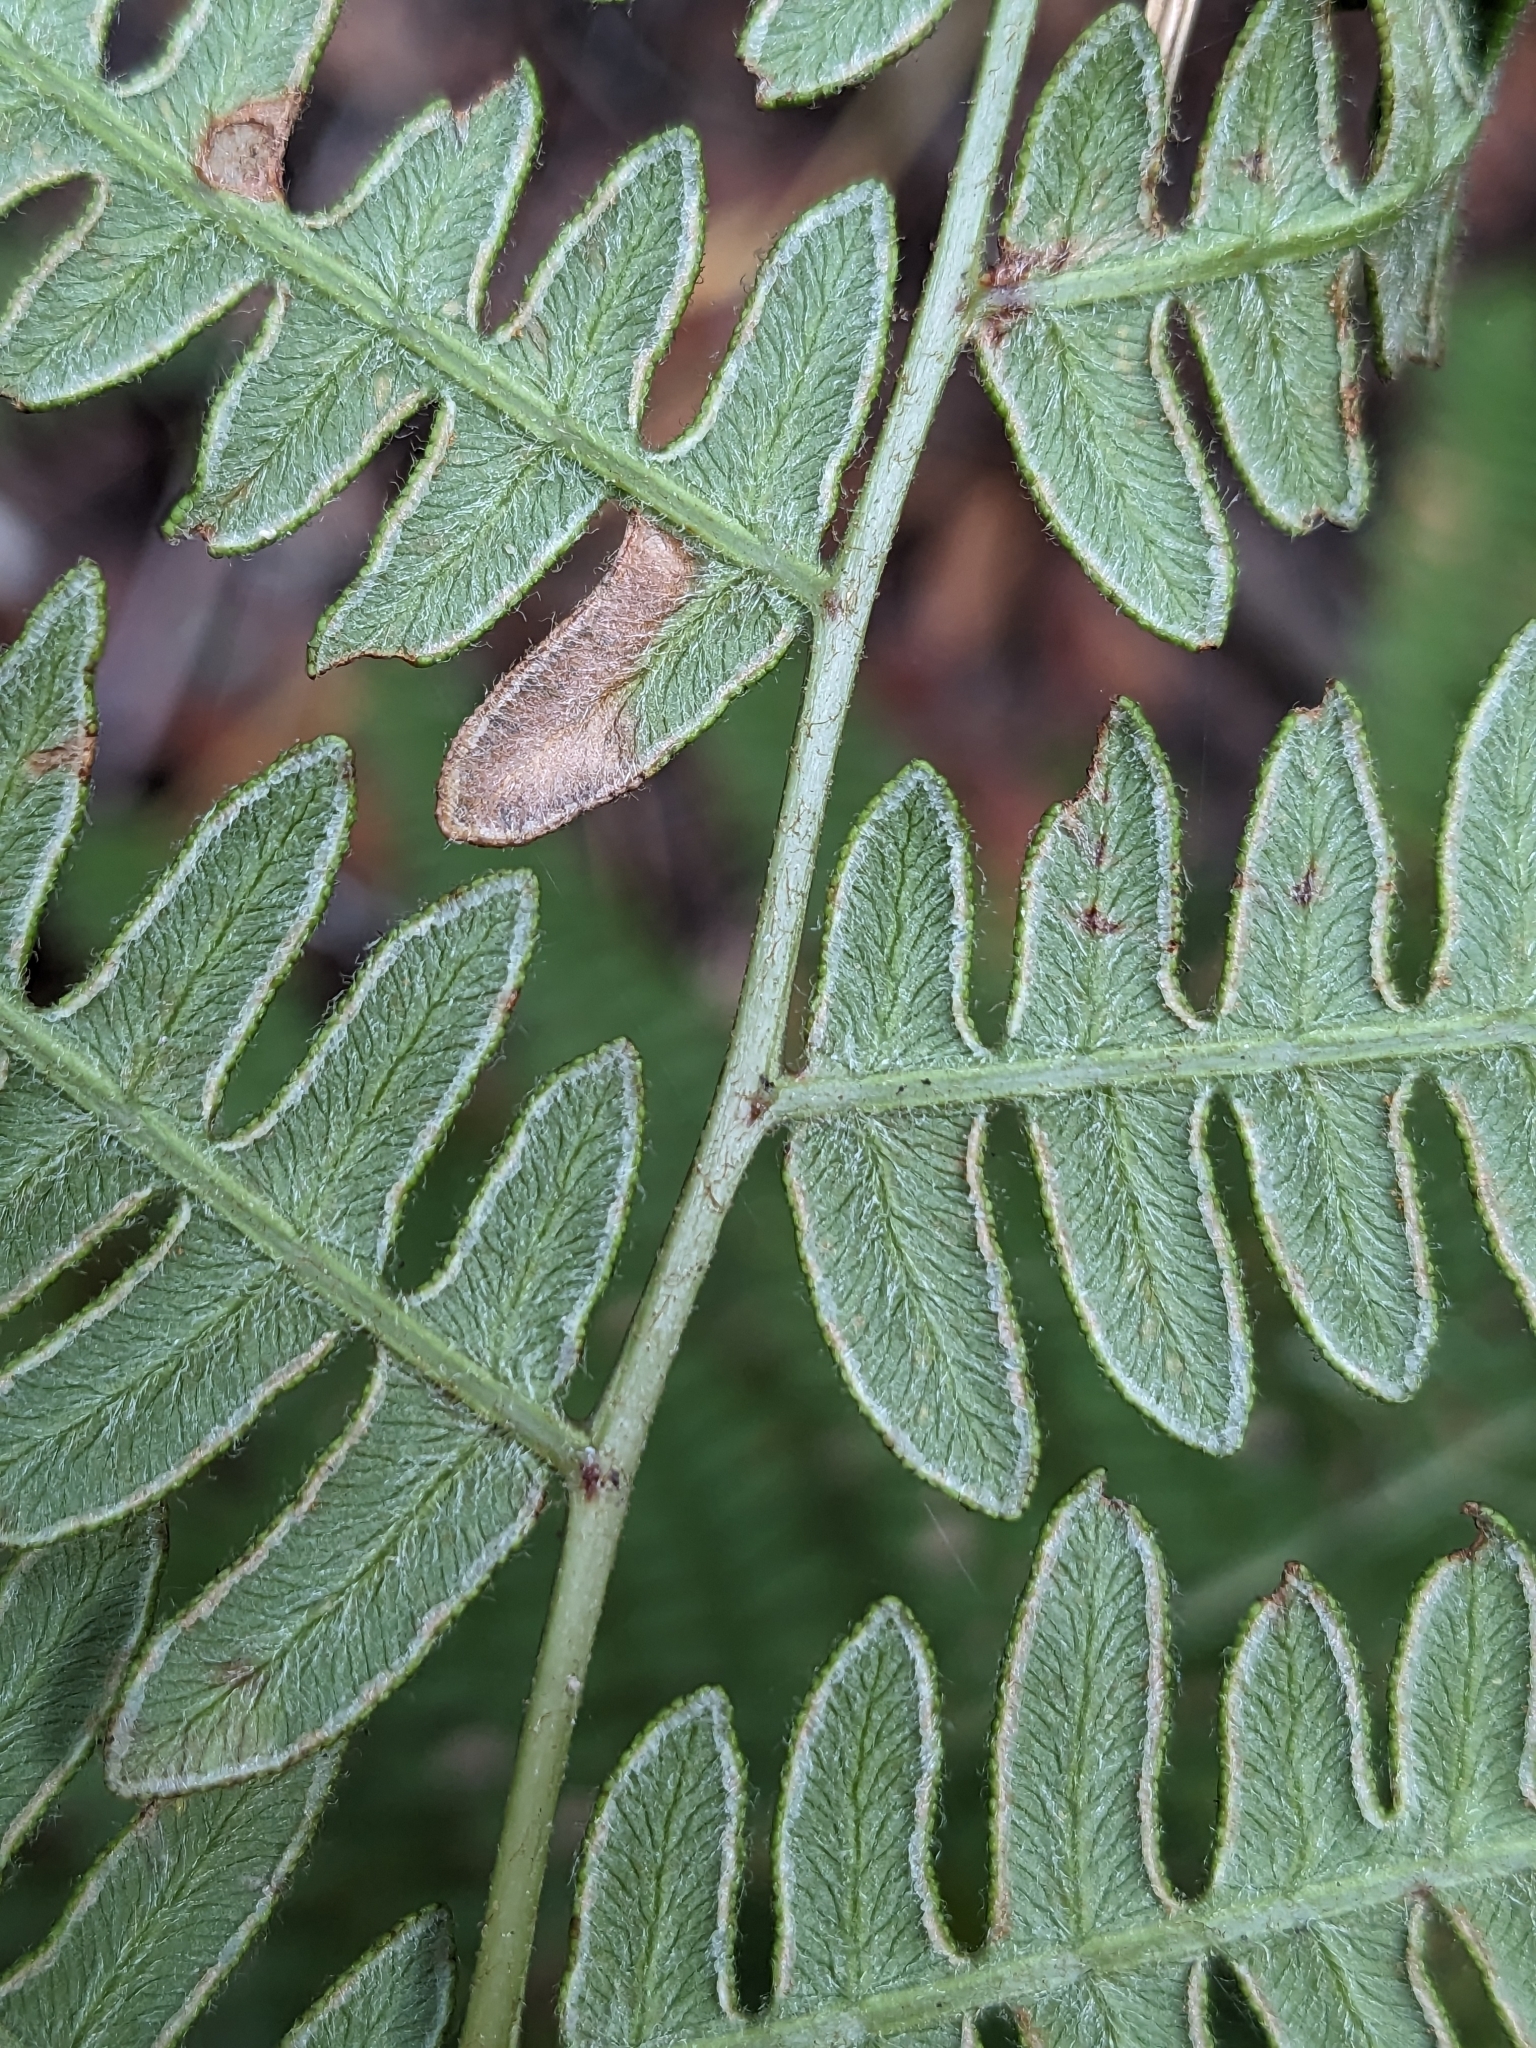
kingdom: Plantae
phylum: Tracheophyta
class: Polypodiopsida
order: Polypodiales
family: Dennstaedtiaceae
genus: Pteridium
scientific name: Pteridium aquilinum
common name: Bracken
